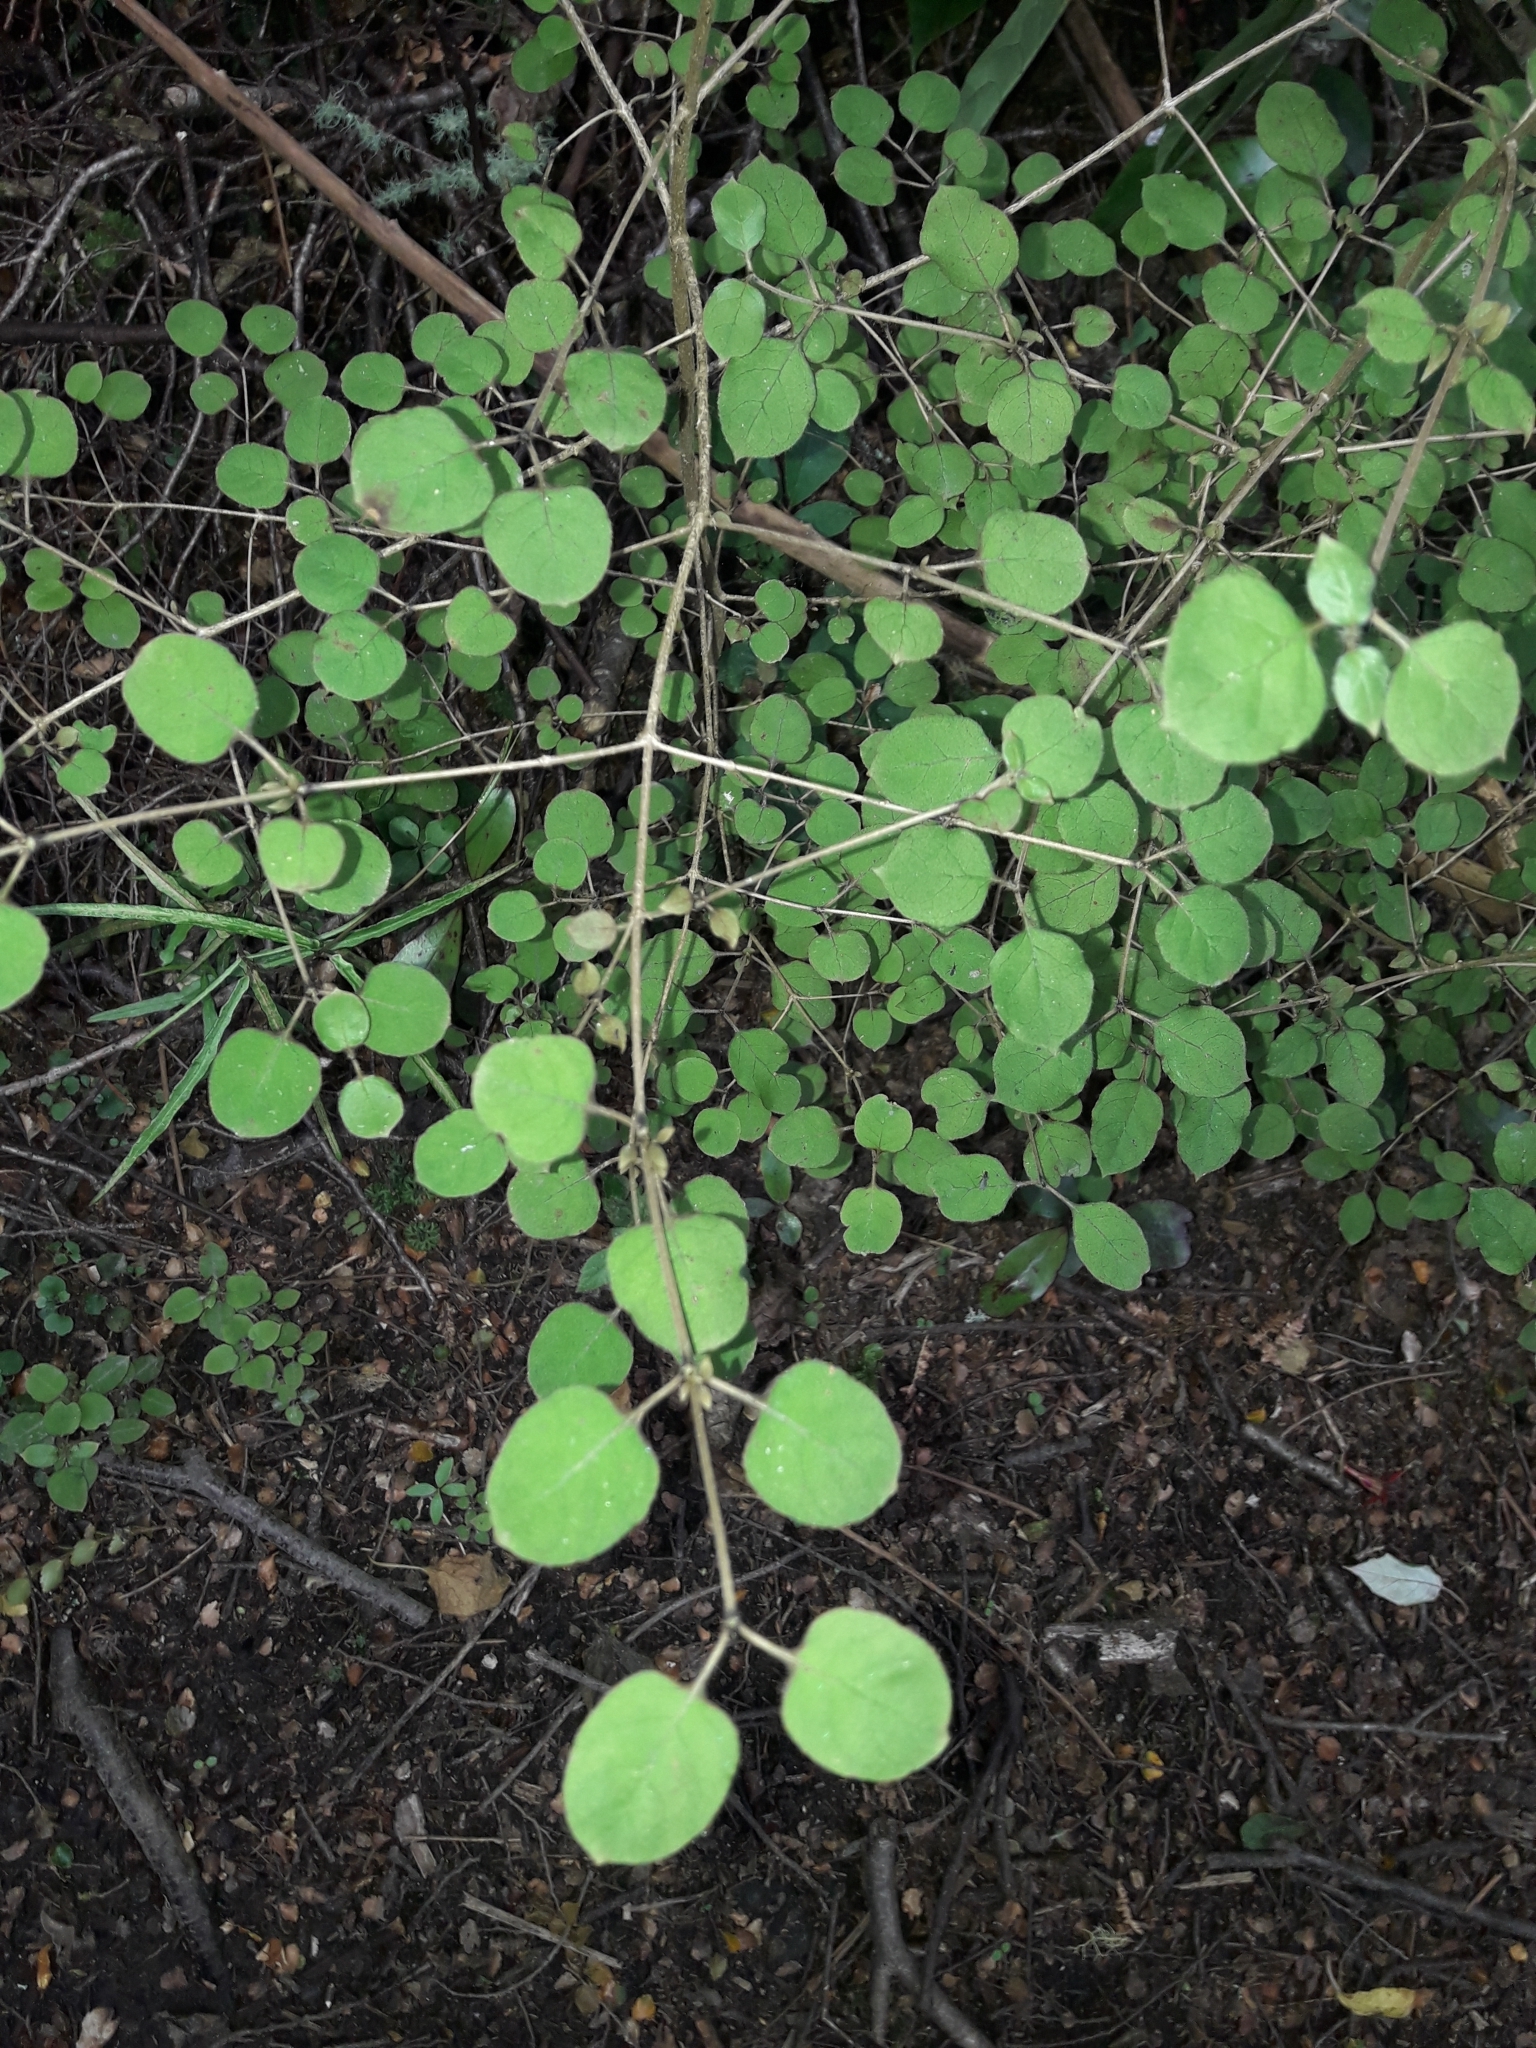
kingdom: Plantae
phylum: Tracheophyta
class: Magnoliopsida
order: Gentianales
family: Rubiaceae
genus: Coprosma
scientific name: Coprosma rotundifolia
